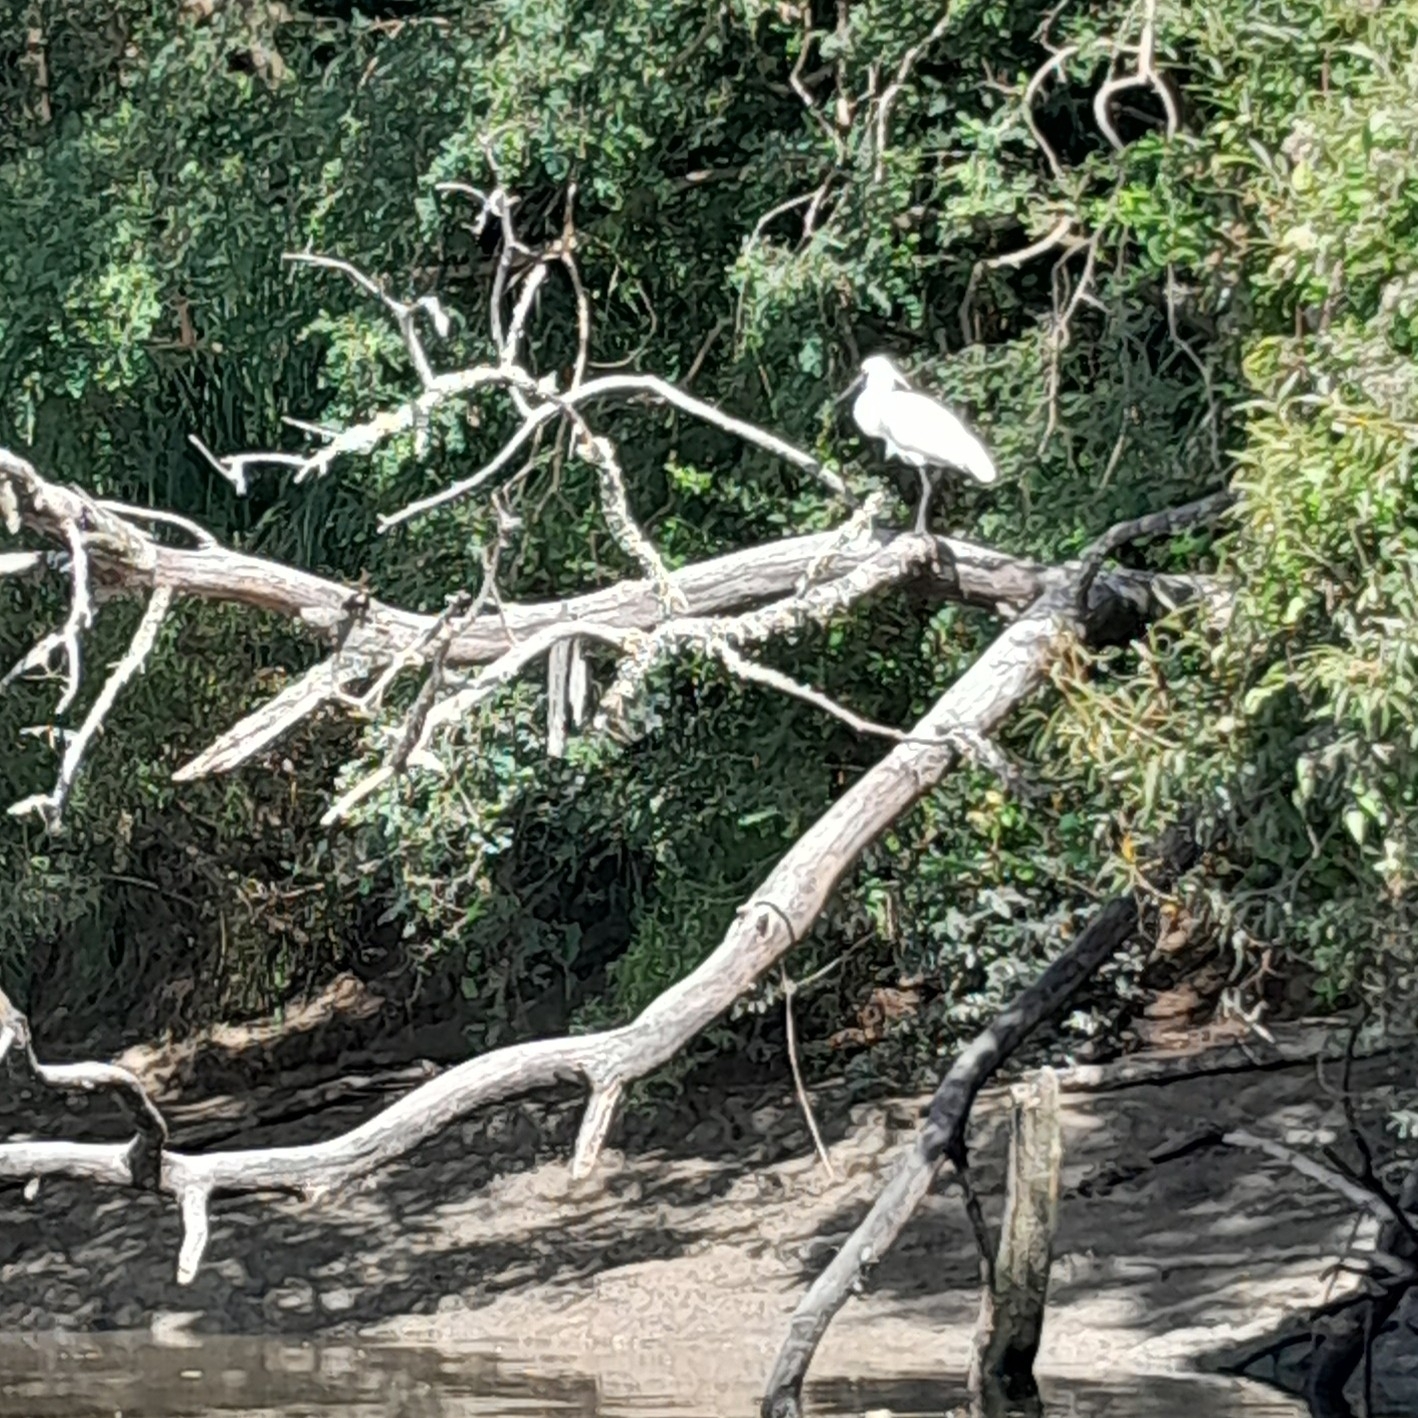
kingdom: Animalia
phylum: Chordata
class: Aves
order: Pelecaniformes
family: Threskiornithidae
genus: Platalea
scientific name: Platalea regia
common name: Royal spoonbill
